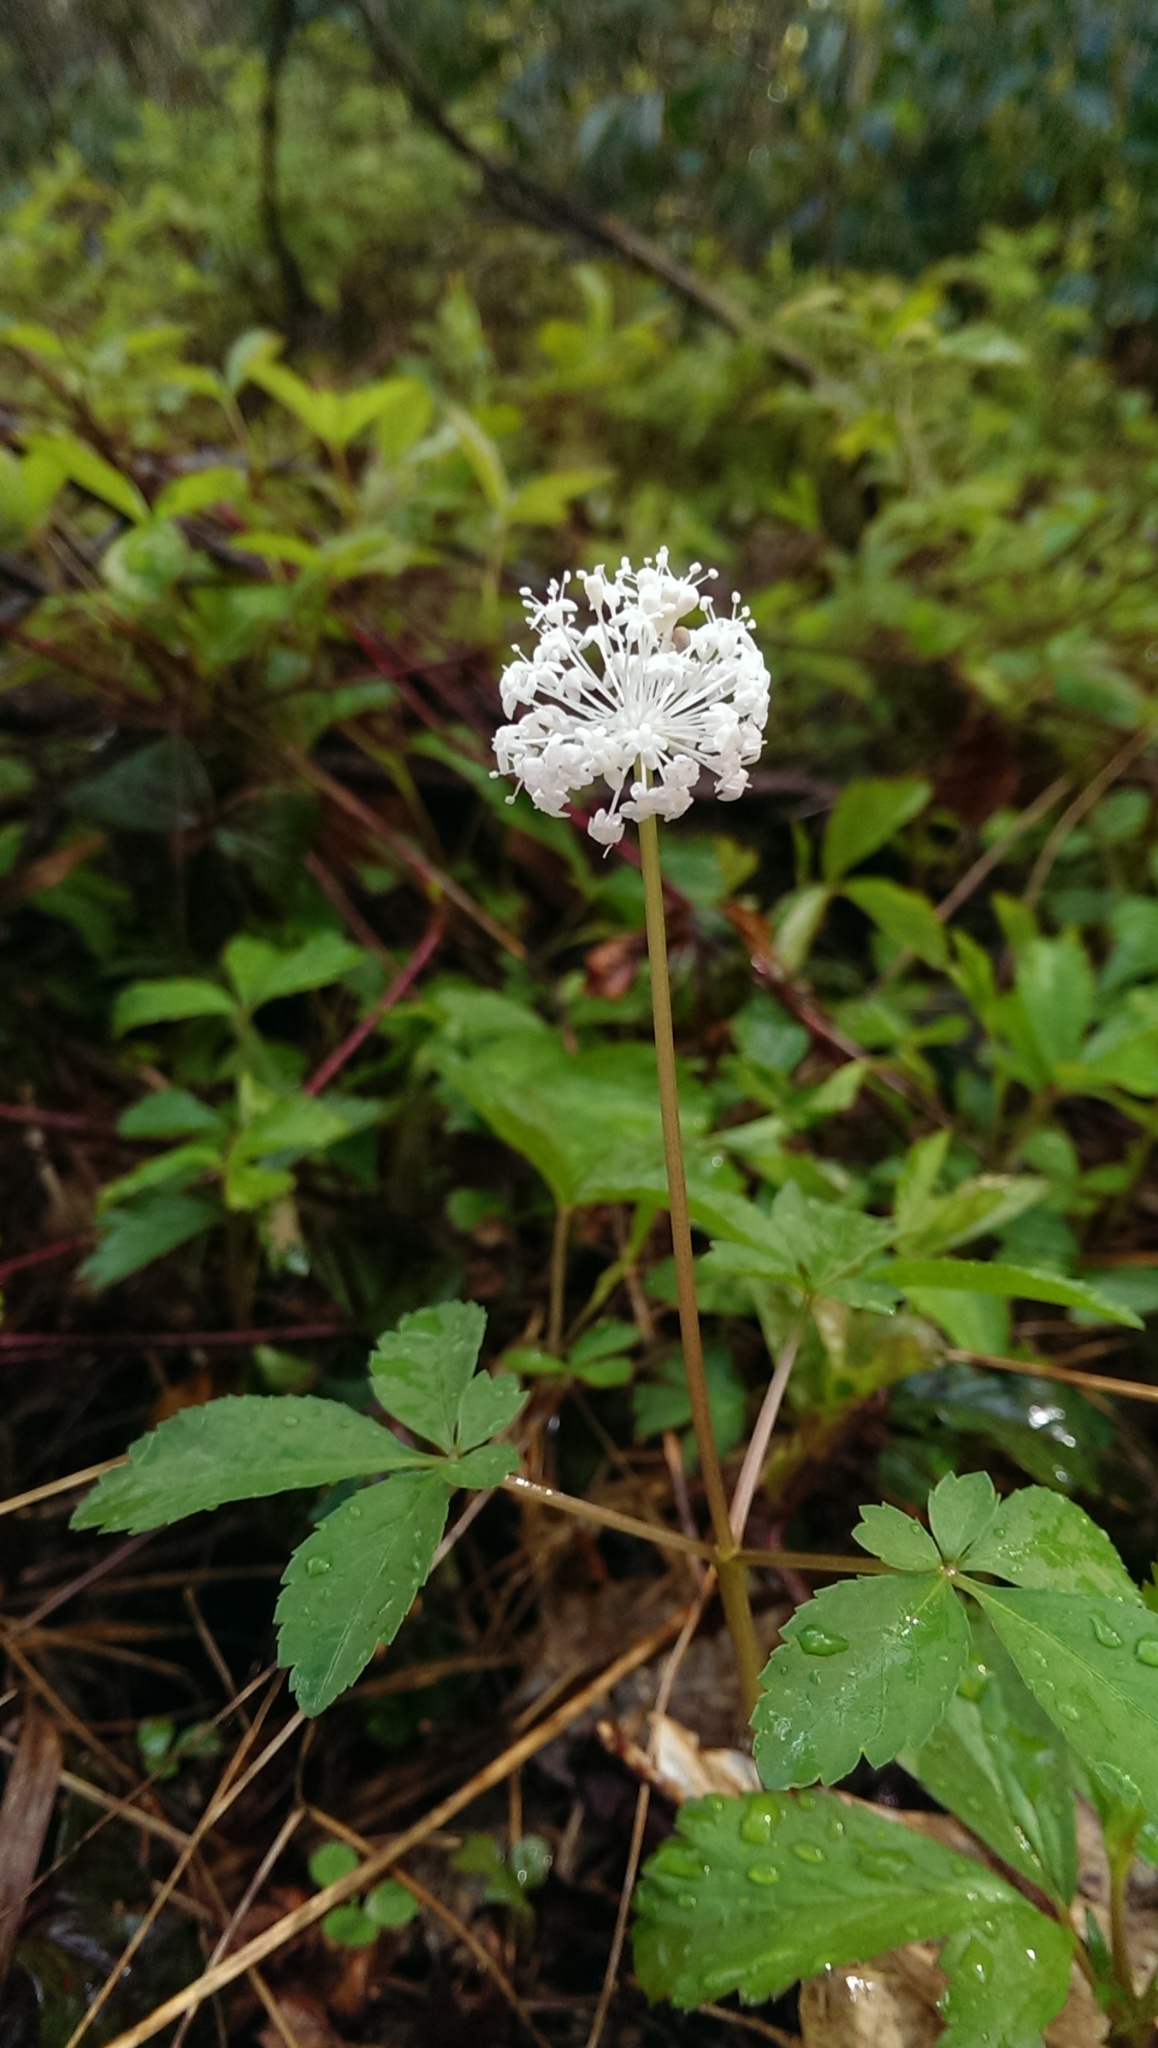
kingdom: Plantae
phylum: Tracheophyta
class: Magnoliopsida
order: Apiales
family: Araliaceae
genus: Panax
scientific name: Panax trifolius
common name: Dwarf ginseng
